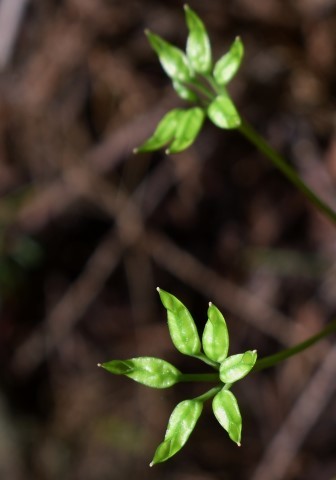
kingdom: Plantae
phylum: Tracheophyta
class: Magnoliopsida
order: Ranunculales
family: Ranunculaceae
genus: Coptis
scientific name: Coptis laciniata
